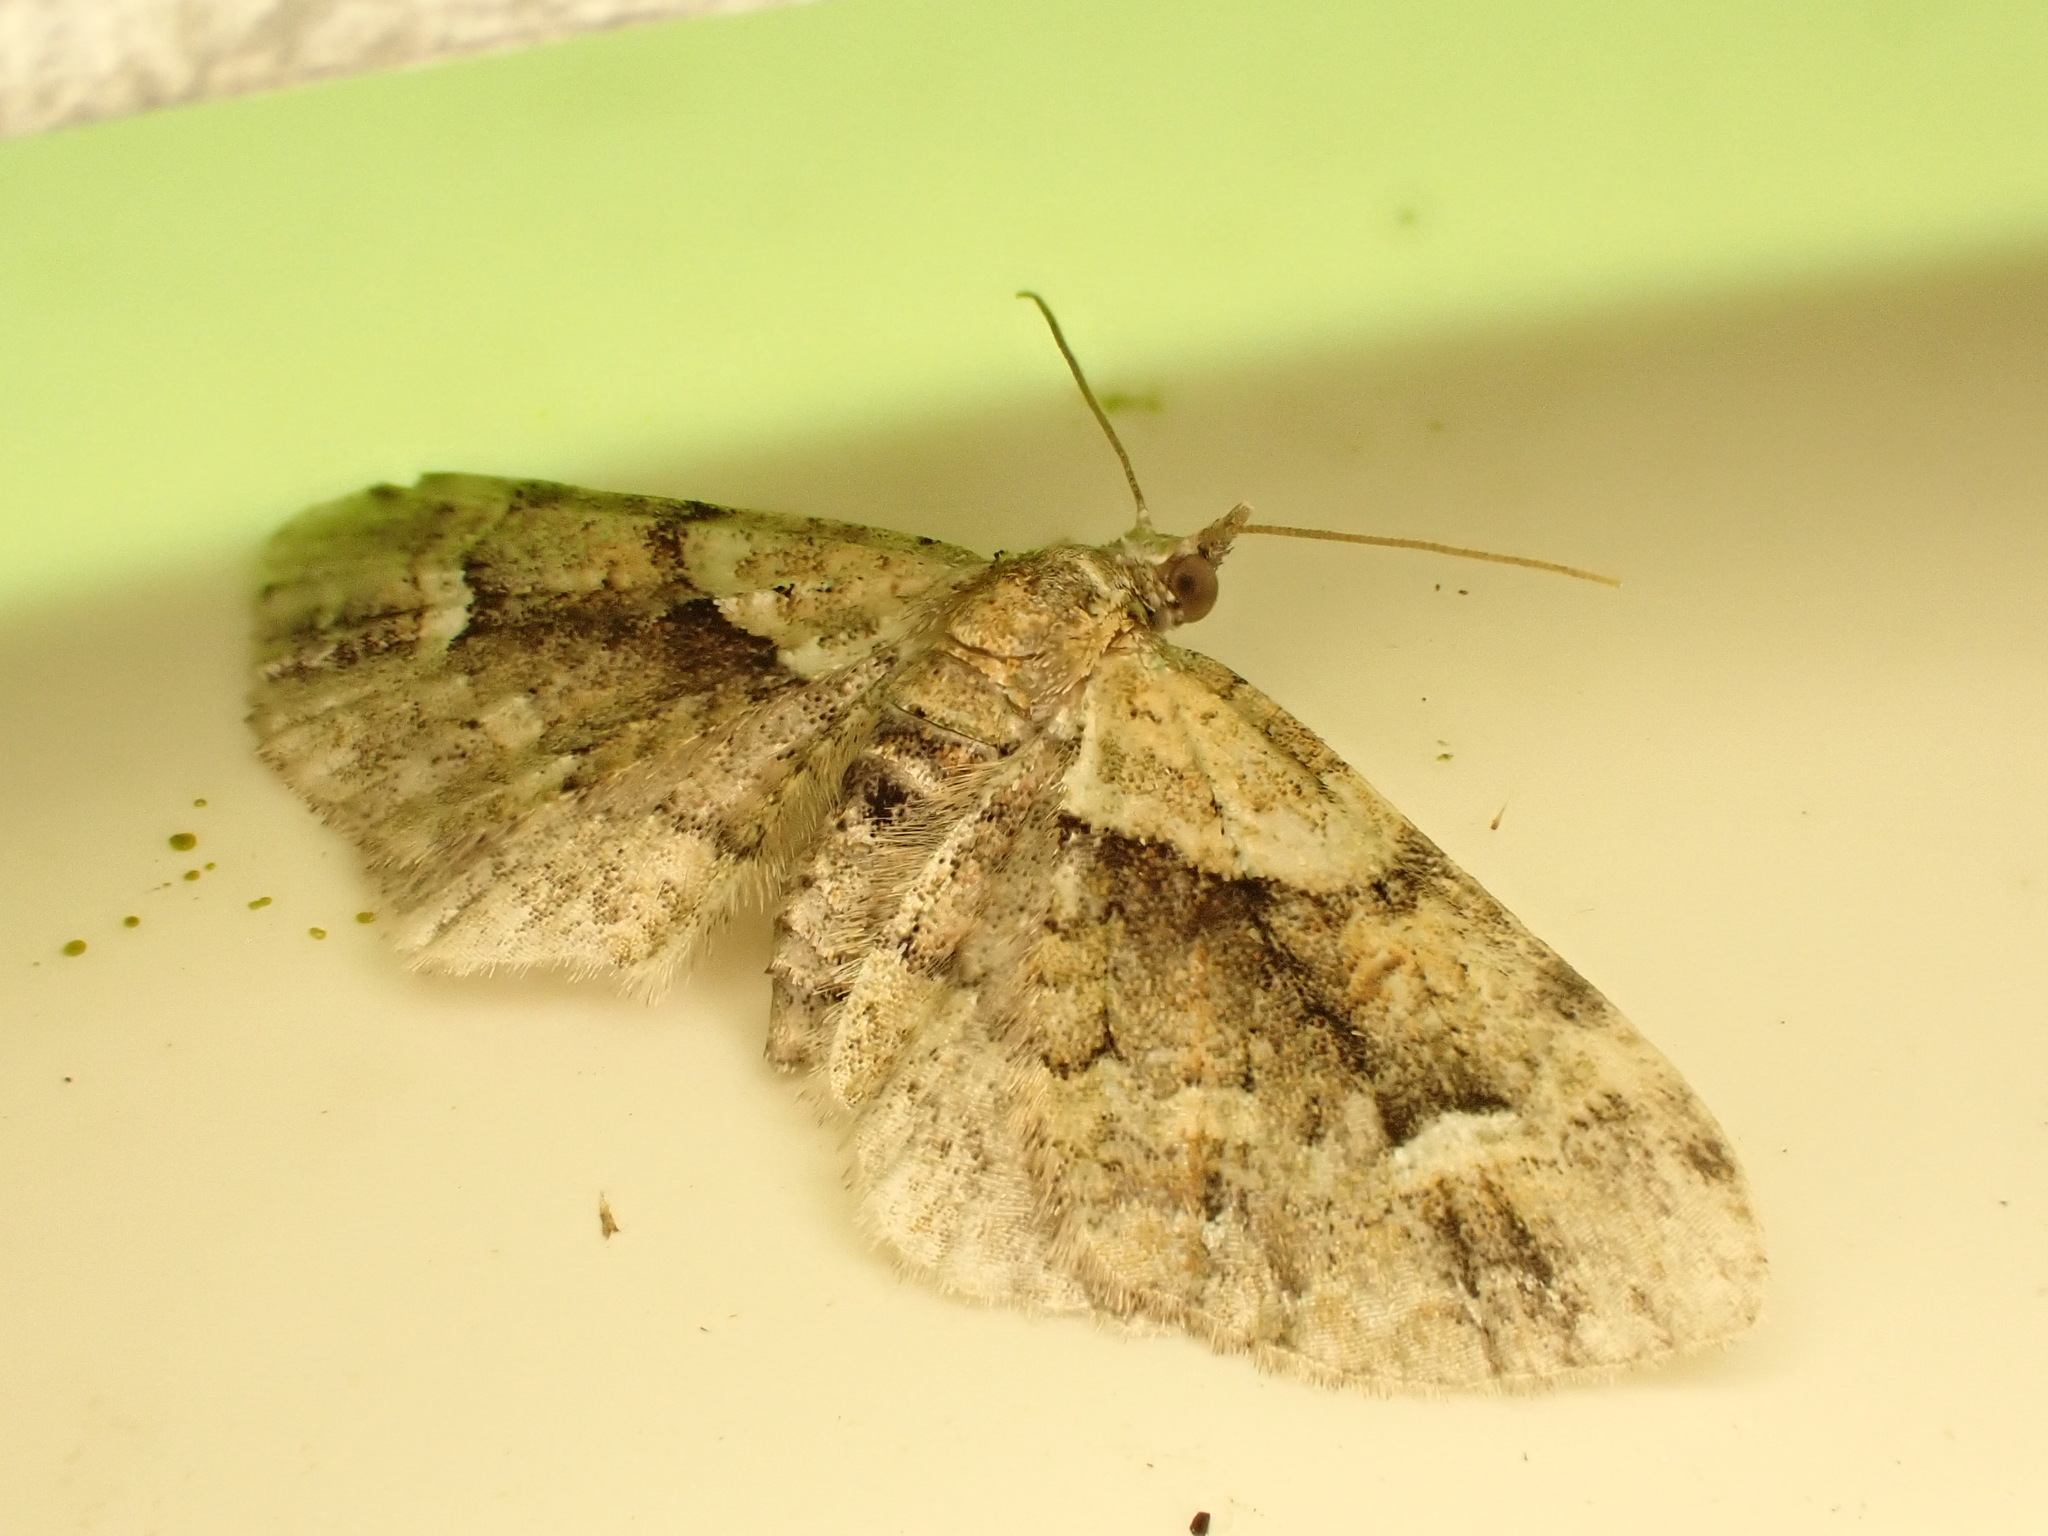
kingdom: Animalia
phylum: Arthropoda
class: Insecta
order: Lepidoptera
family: Geometridae
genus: Idaea
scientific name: Idaea mutanda
